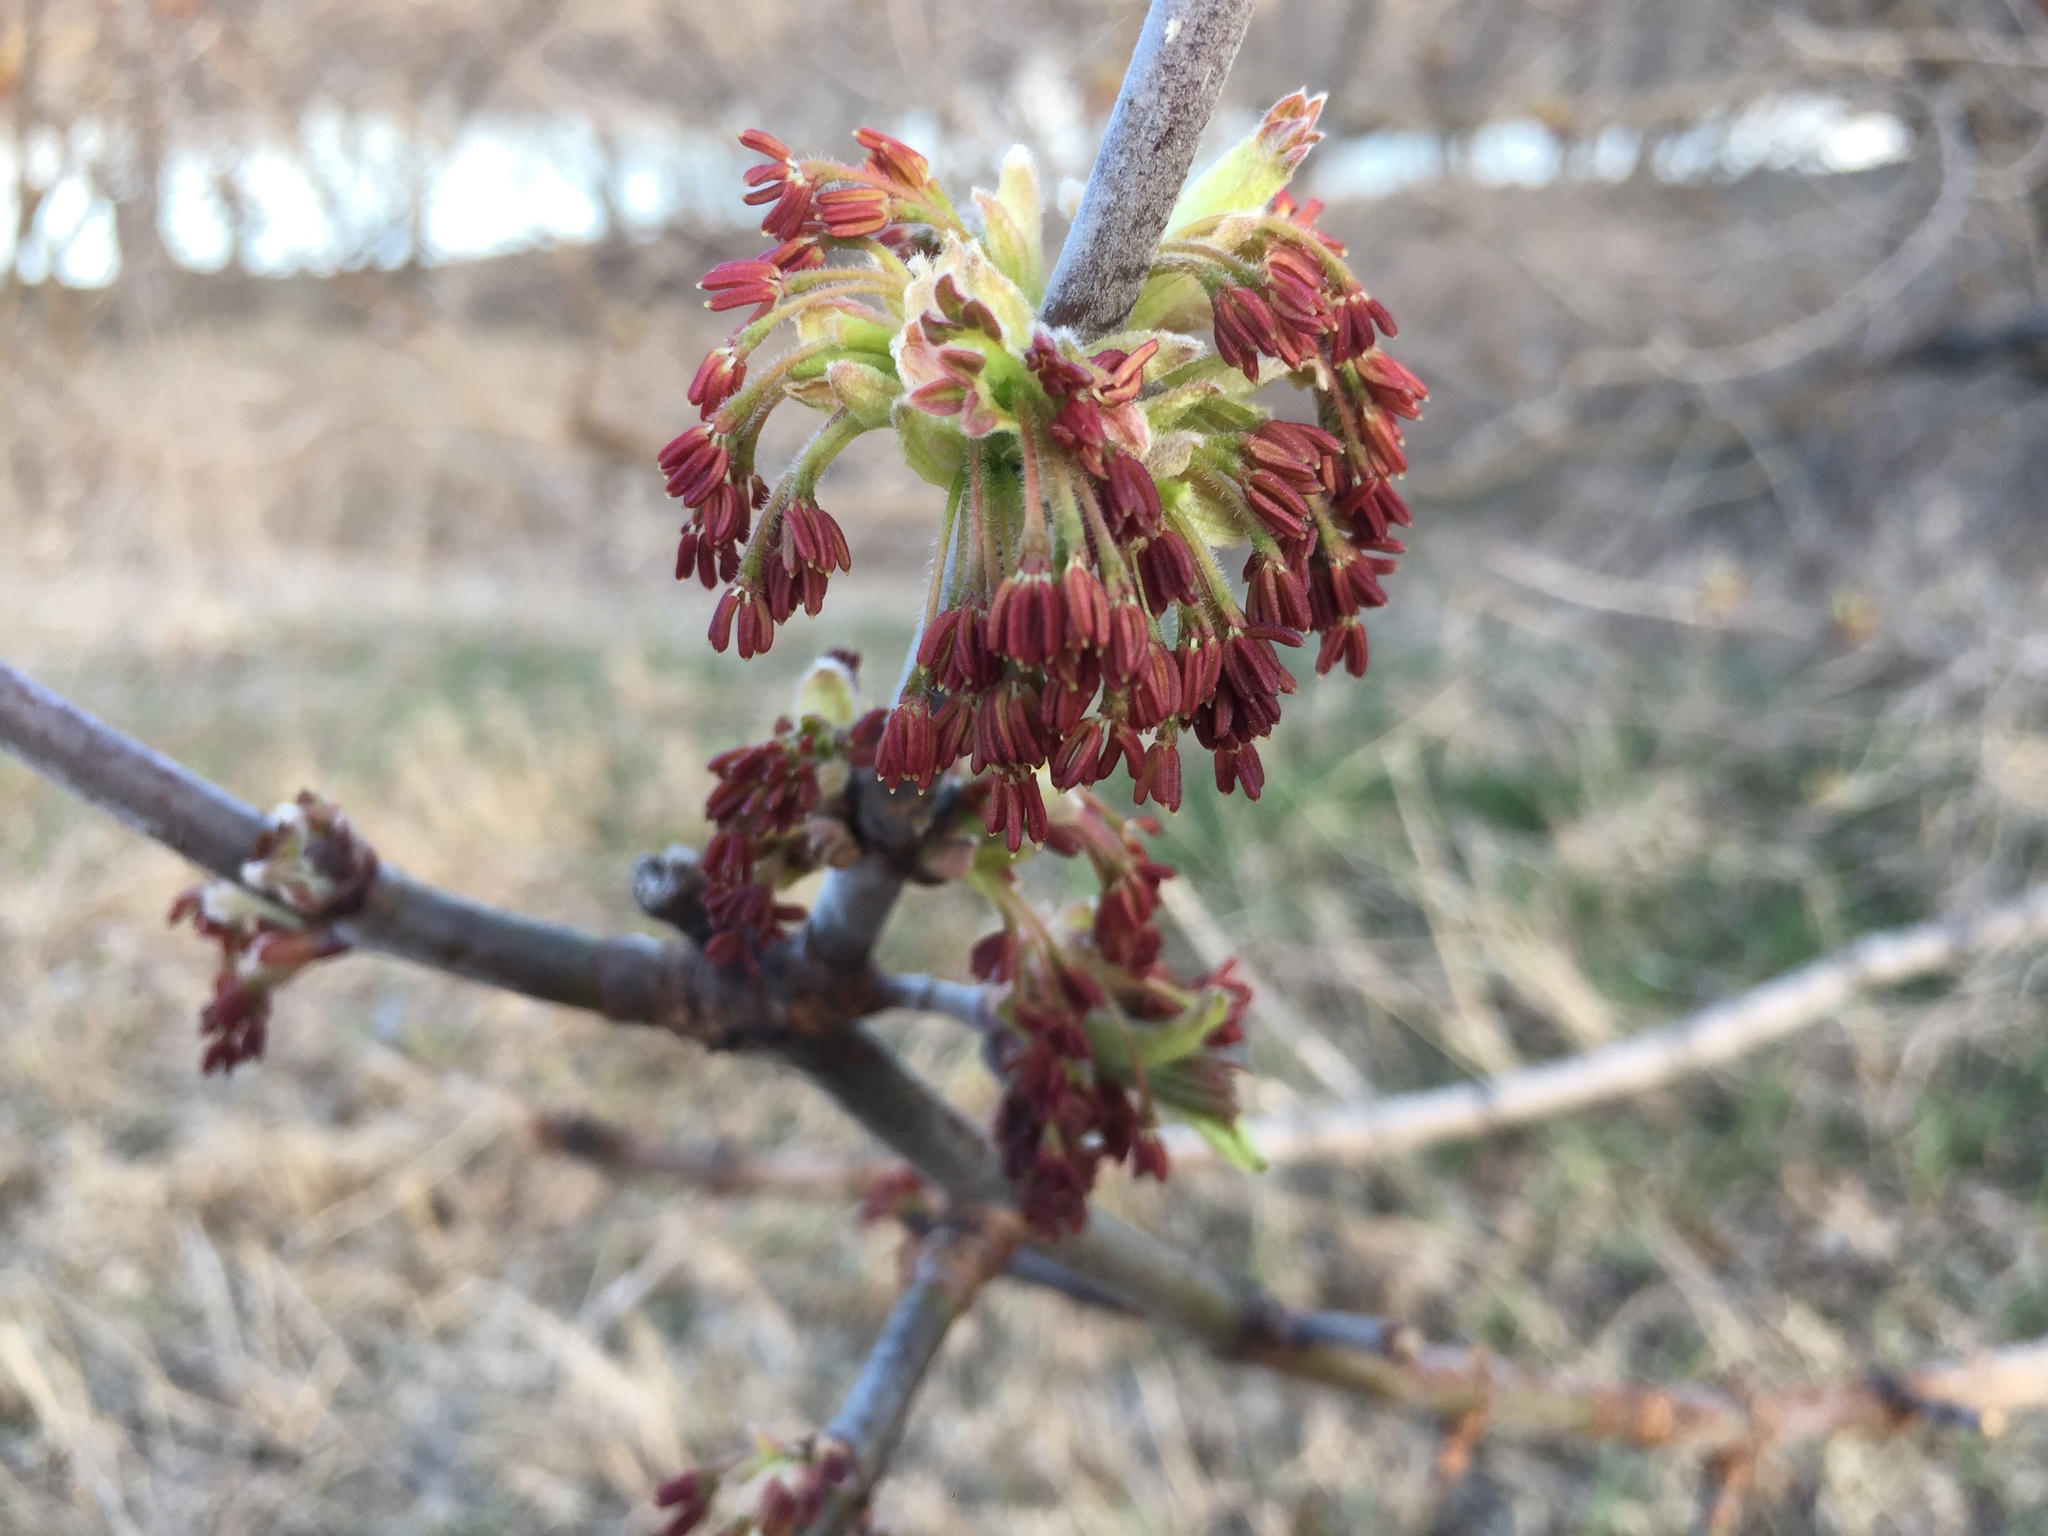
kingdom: Plantae
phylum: Tracheophyta
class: Magnoliopsida
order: Sapindales
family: Sapindaceae
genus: Acer
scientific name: Acer negundo
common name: Ashleaf maple
